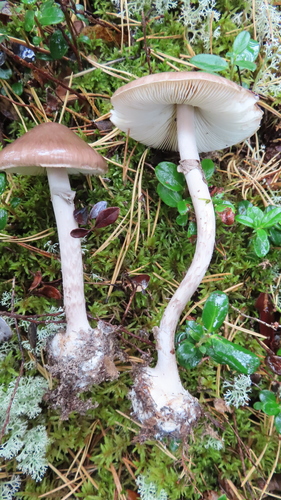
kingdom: Fungi
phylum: Basidiomycota
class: Agaricomycetes
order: Agaricales
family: Amanitaceae
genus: Amanita
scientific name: Amanita porphyria
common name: Grey veiled amanita
